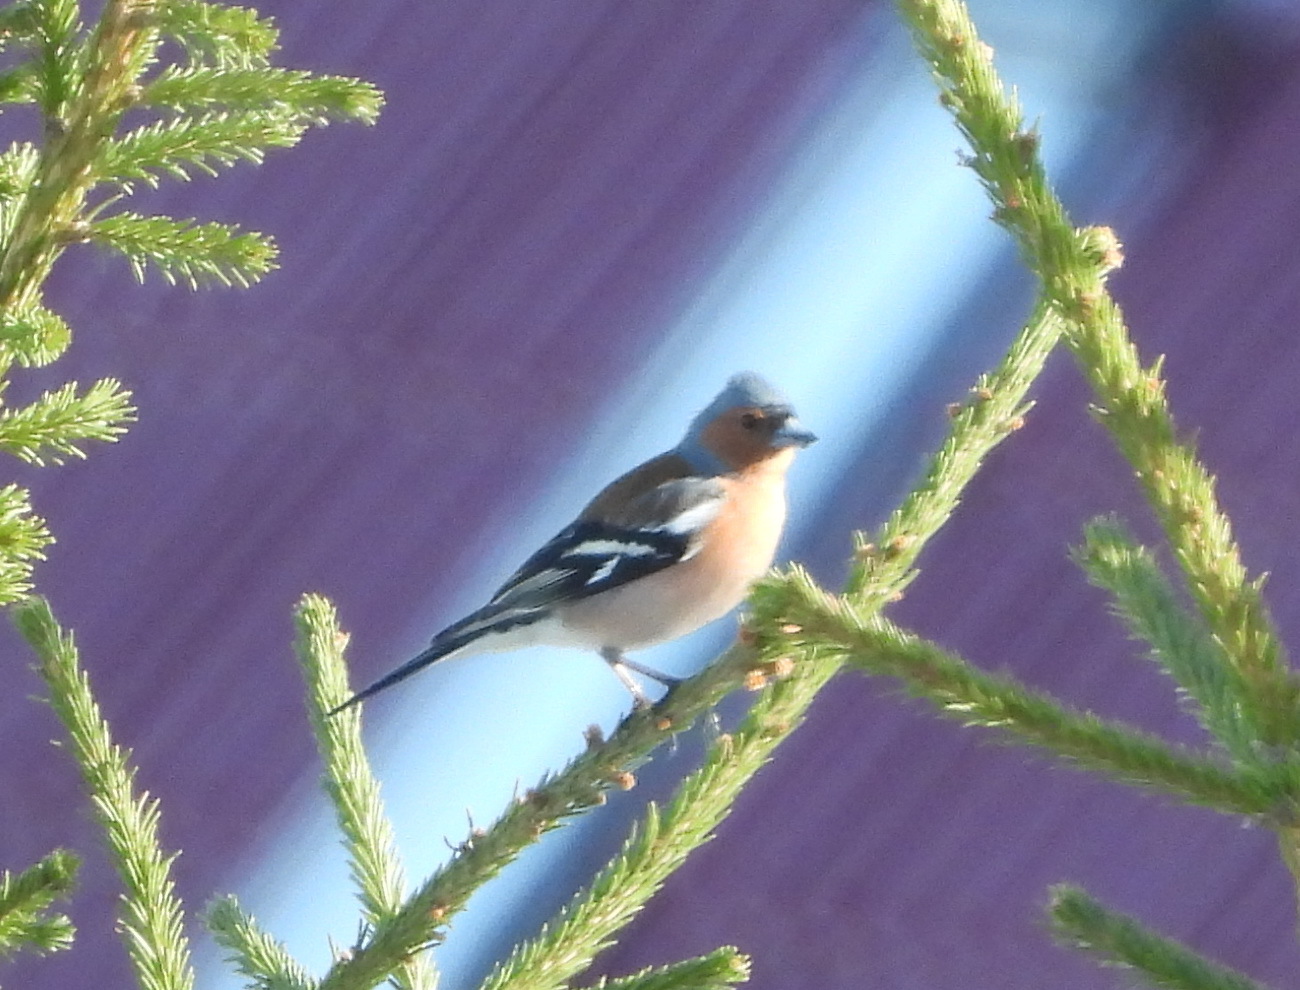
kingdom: Animalia
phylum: Chordata
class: Aves
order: Passeriformes
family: Fringillidae
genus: Fringilla
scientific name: Fringilla coelebs
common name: Common chaffinch
